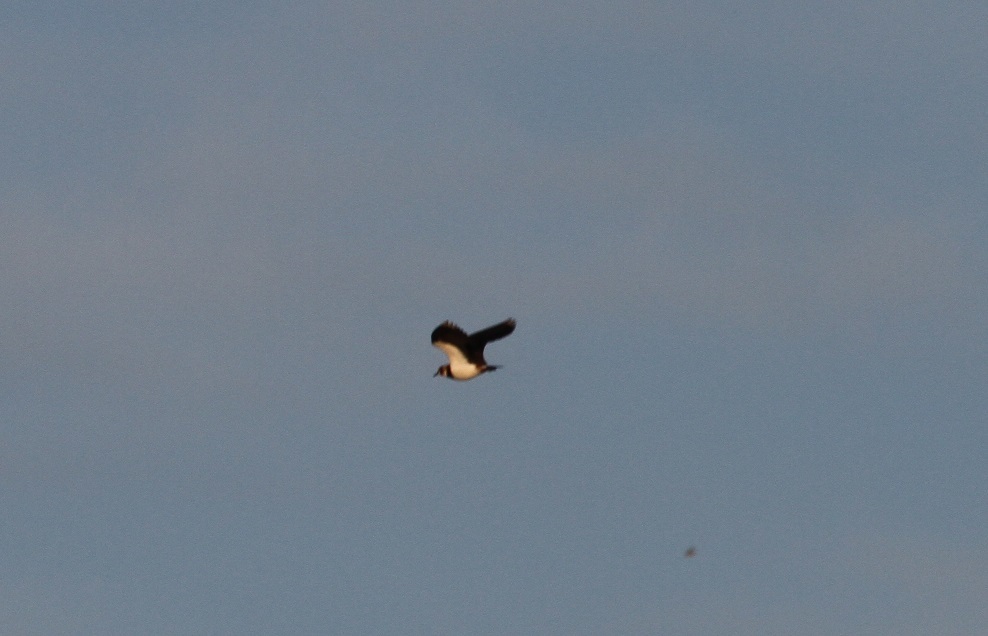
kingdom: Animalia
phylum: Chordata
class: Aves
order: Charadriiformes
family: Charadriidae
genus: Vanellus
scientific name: Vanellus vanellus
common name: Northern lapwing
